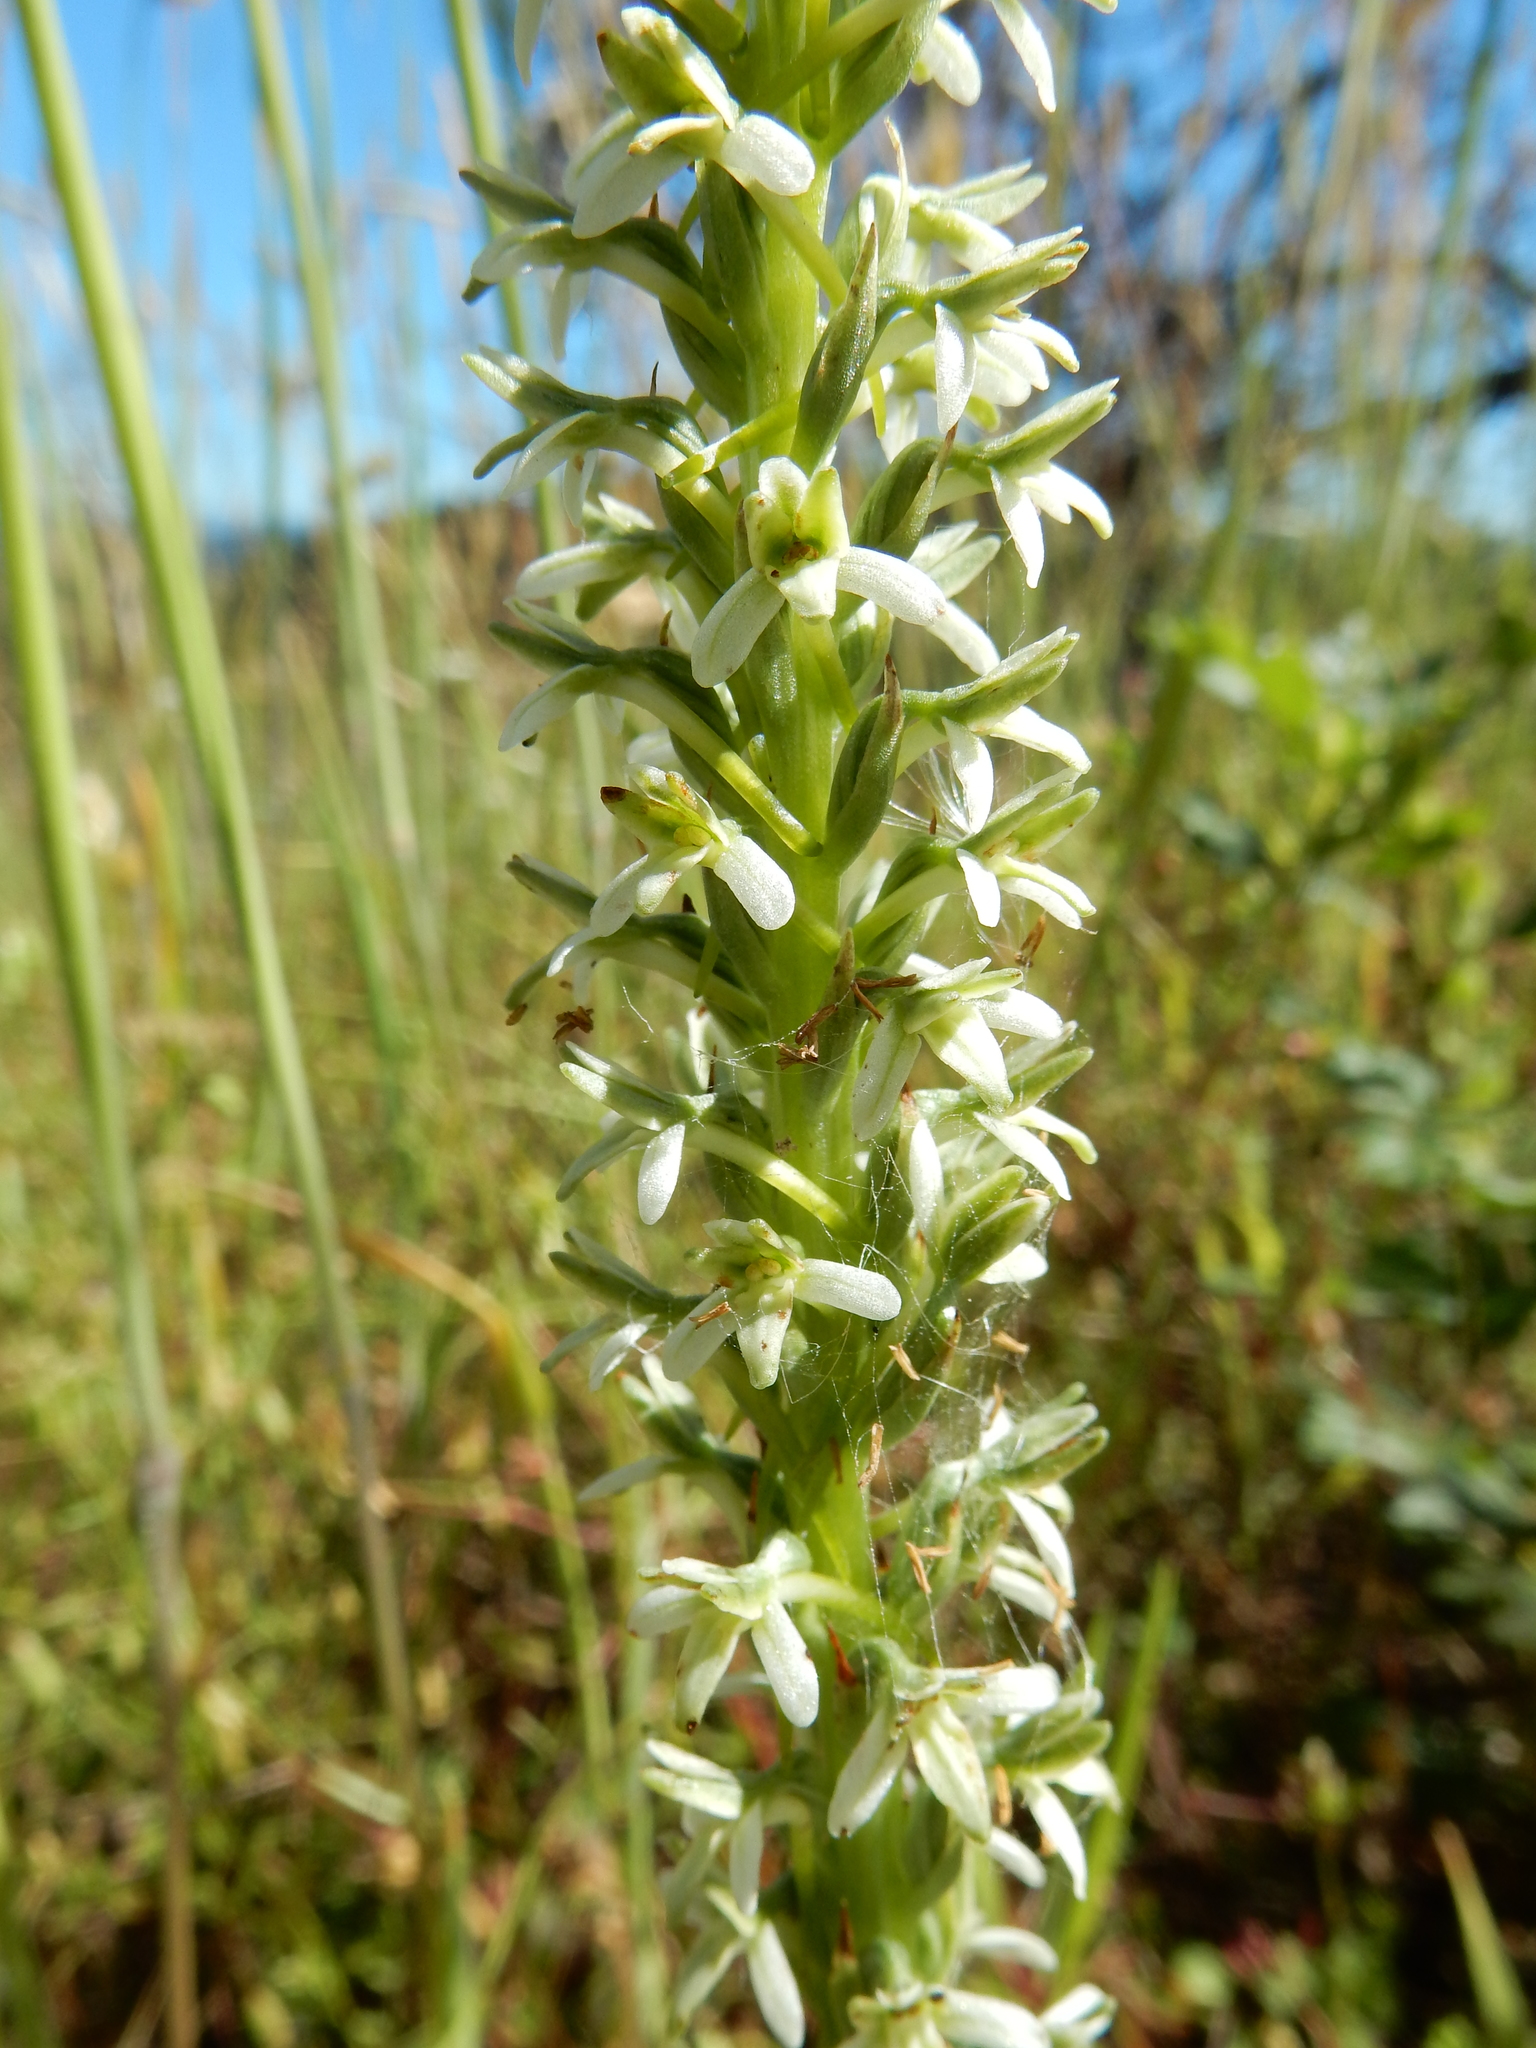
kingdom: Plantae
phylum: Tracheophyta
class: Liliopsida
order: Asparagales
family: Orchidaceae
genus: Platanthera
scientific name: Platanthera elegans
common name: Coast piperia
